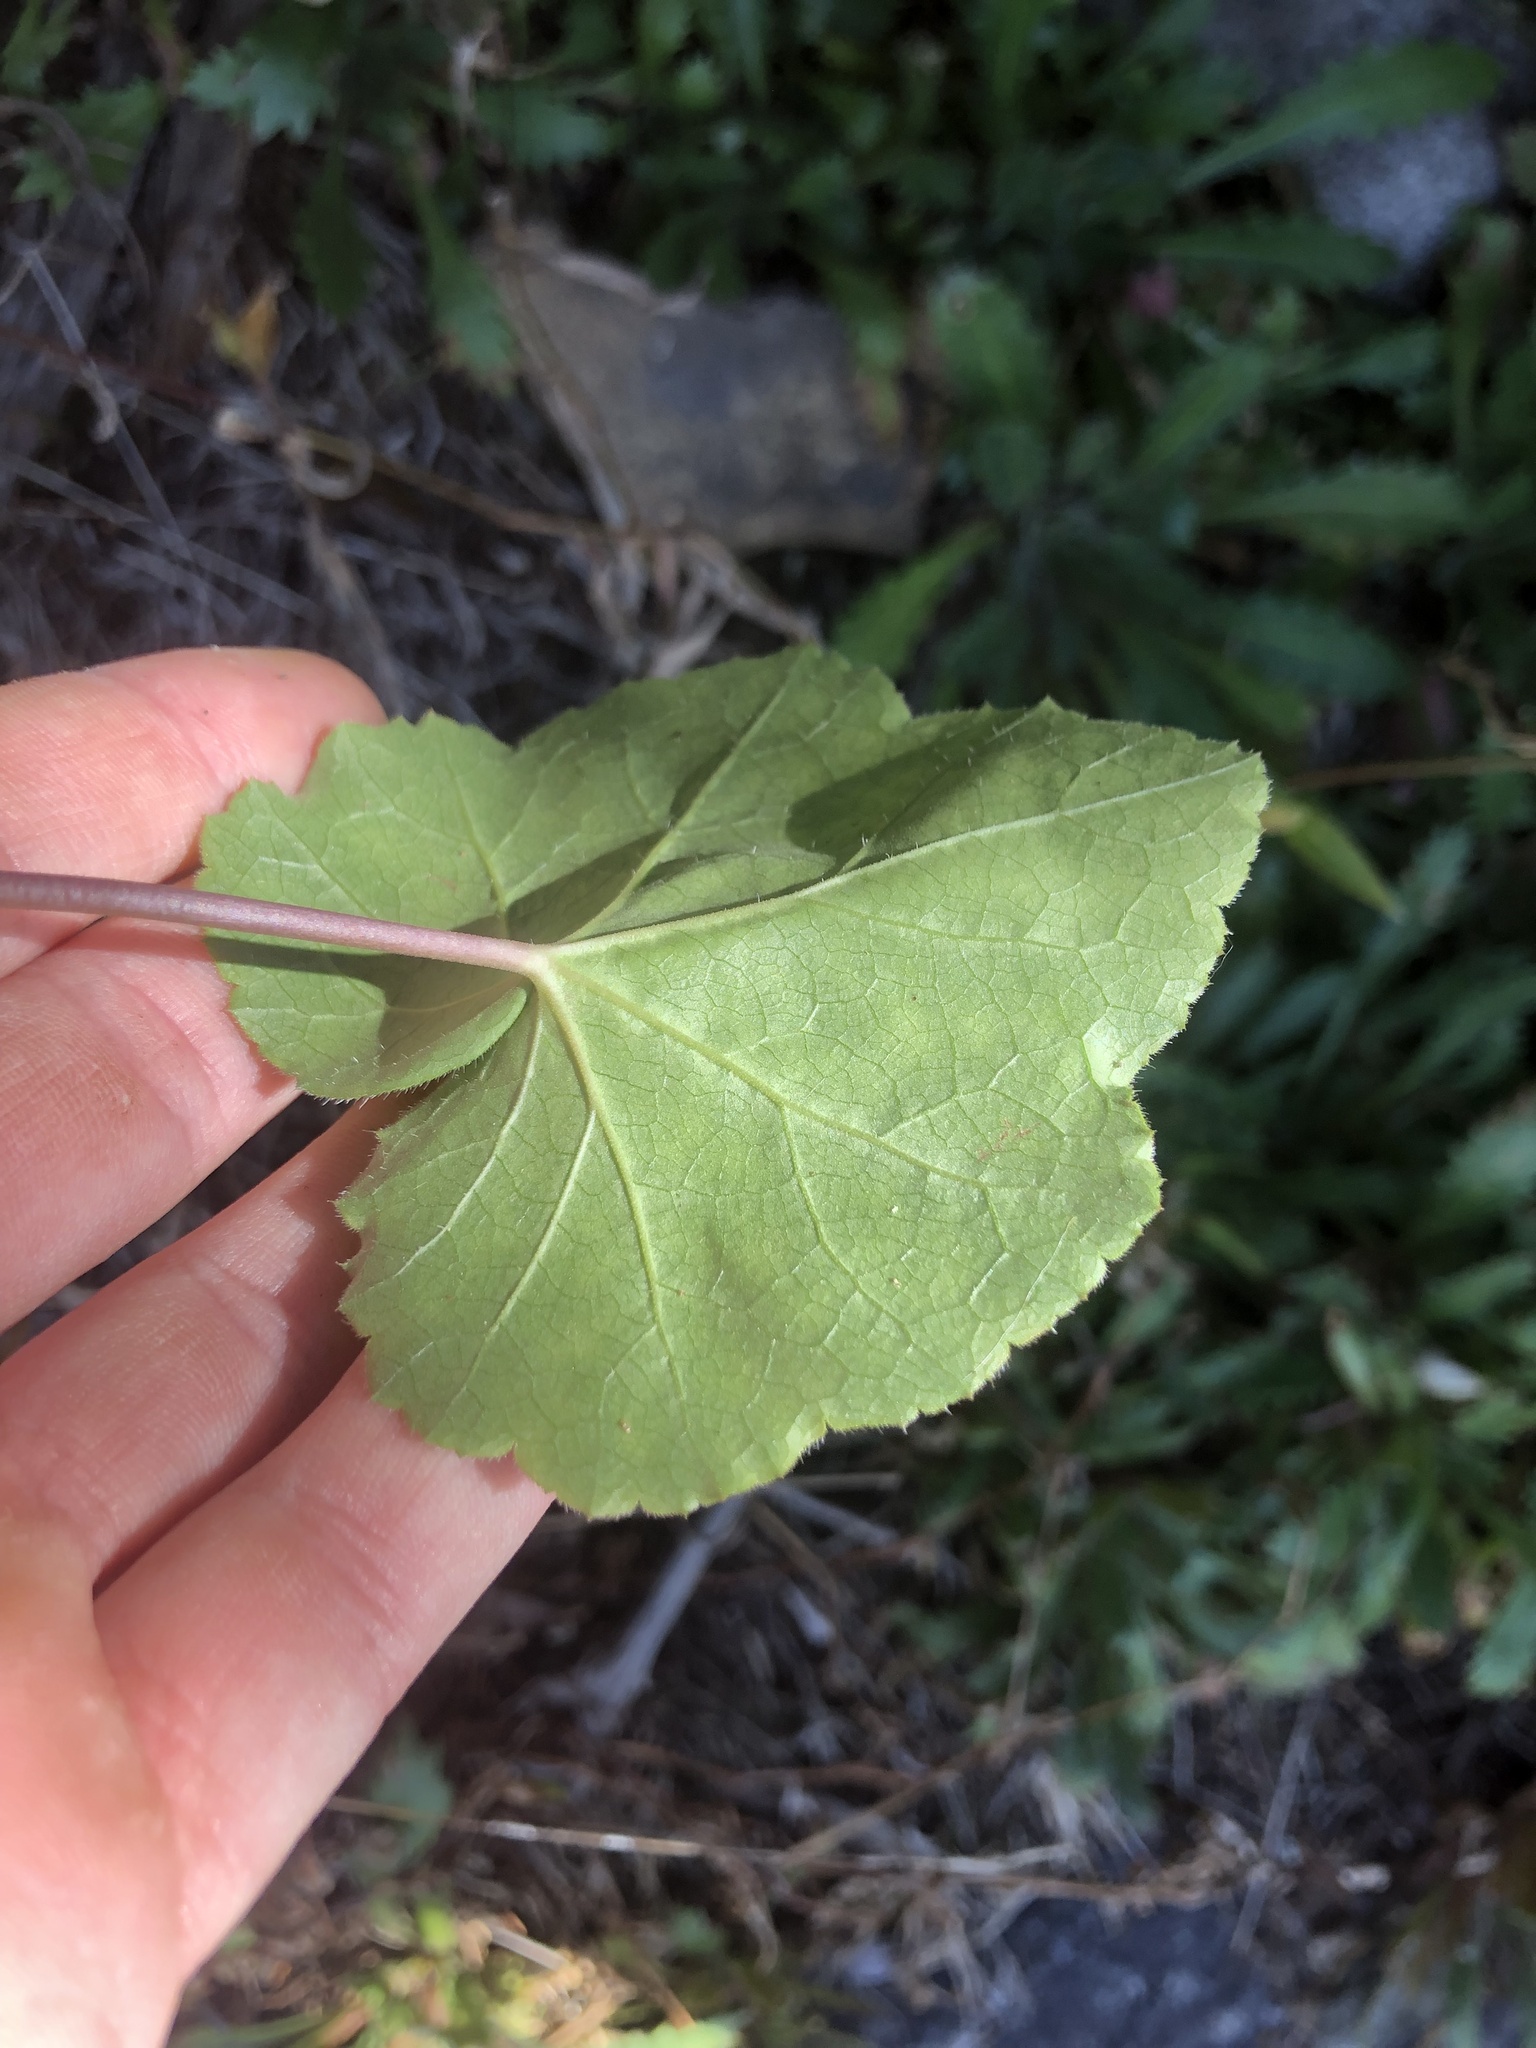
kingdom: Plantae
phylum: Tracheophyta
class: Magnoliopsida
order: Saxifragales
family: Saxifragaceae
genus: Heuchera
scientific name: Heuchera americana
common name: Alumroot
